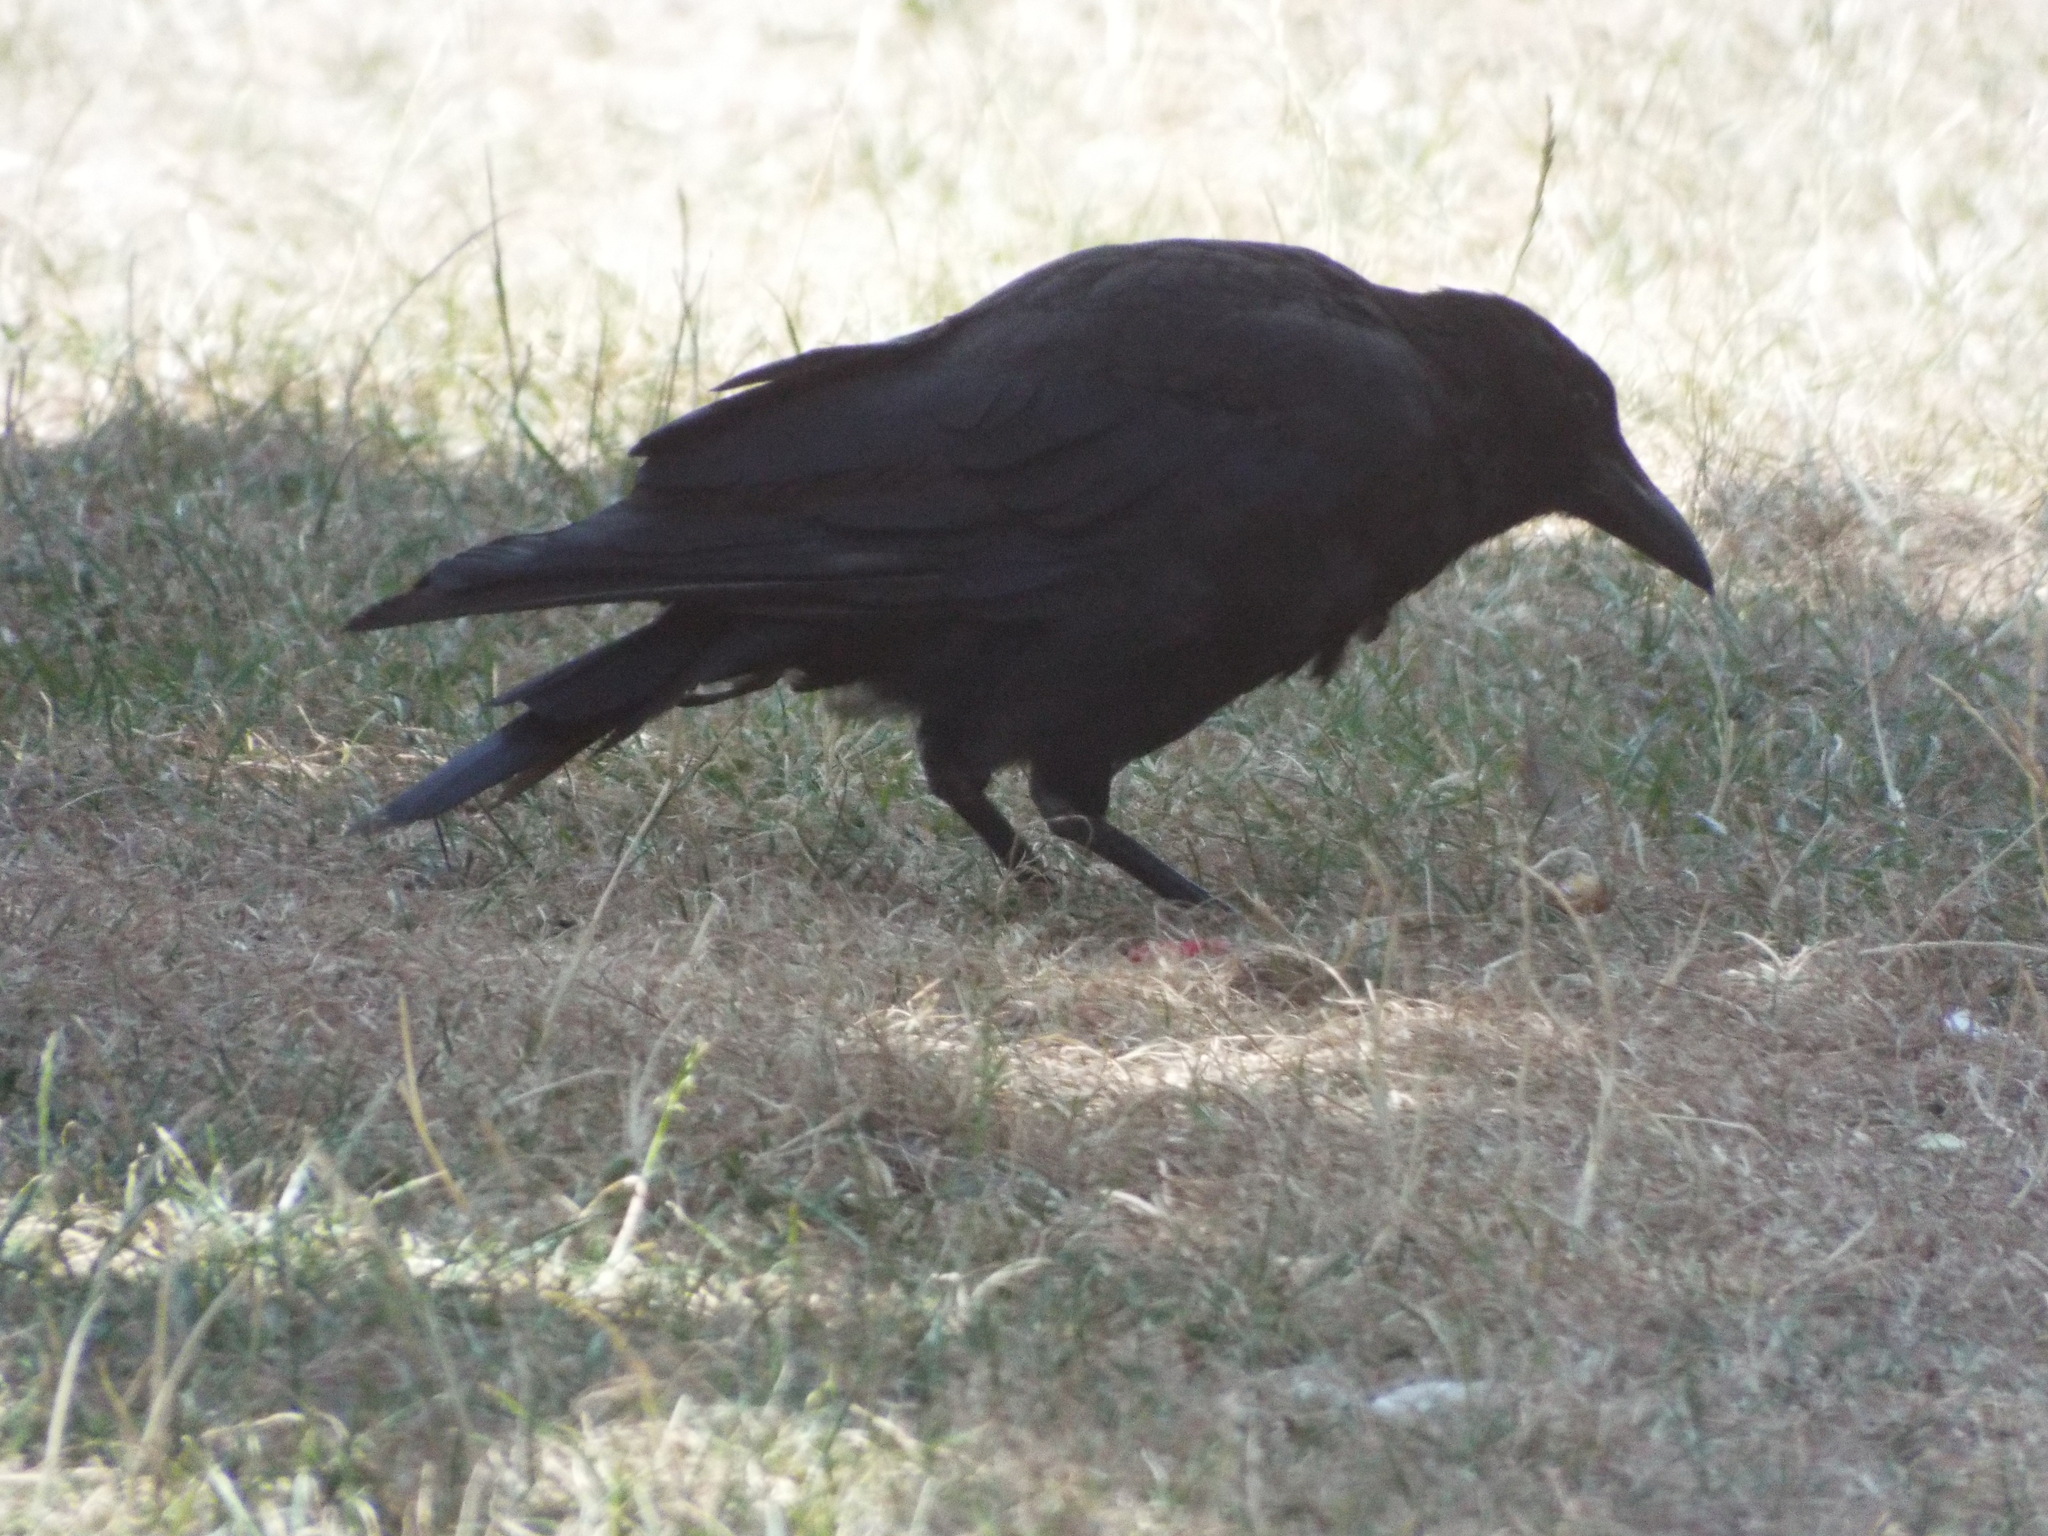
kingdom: Animalia
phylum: Chordata
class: Aves
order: Passeriformes
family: Corvidae
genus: Corvus
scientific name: Corvus corone
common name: Carrion crow
